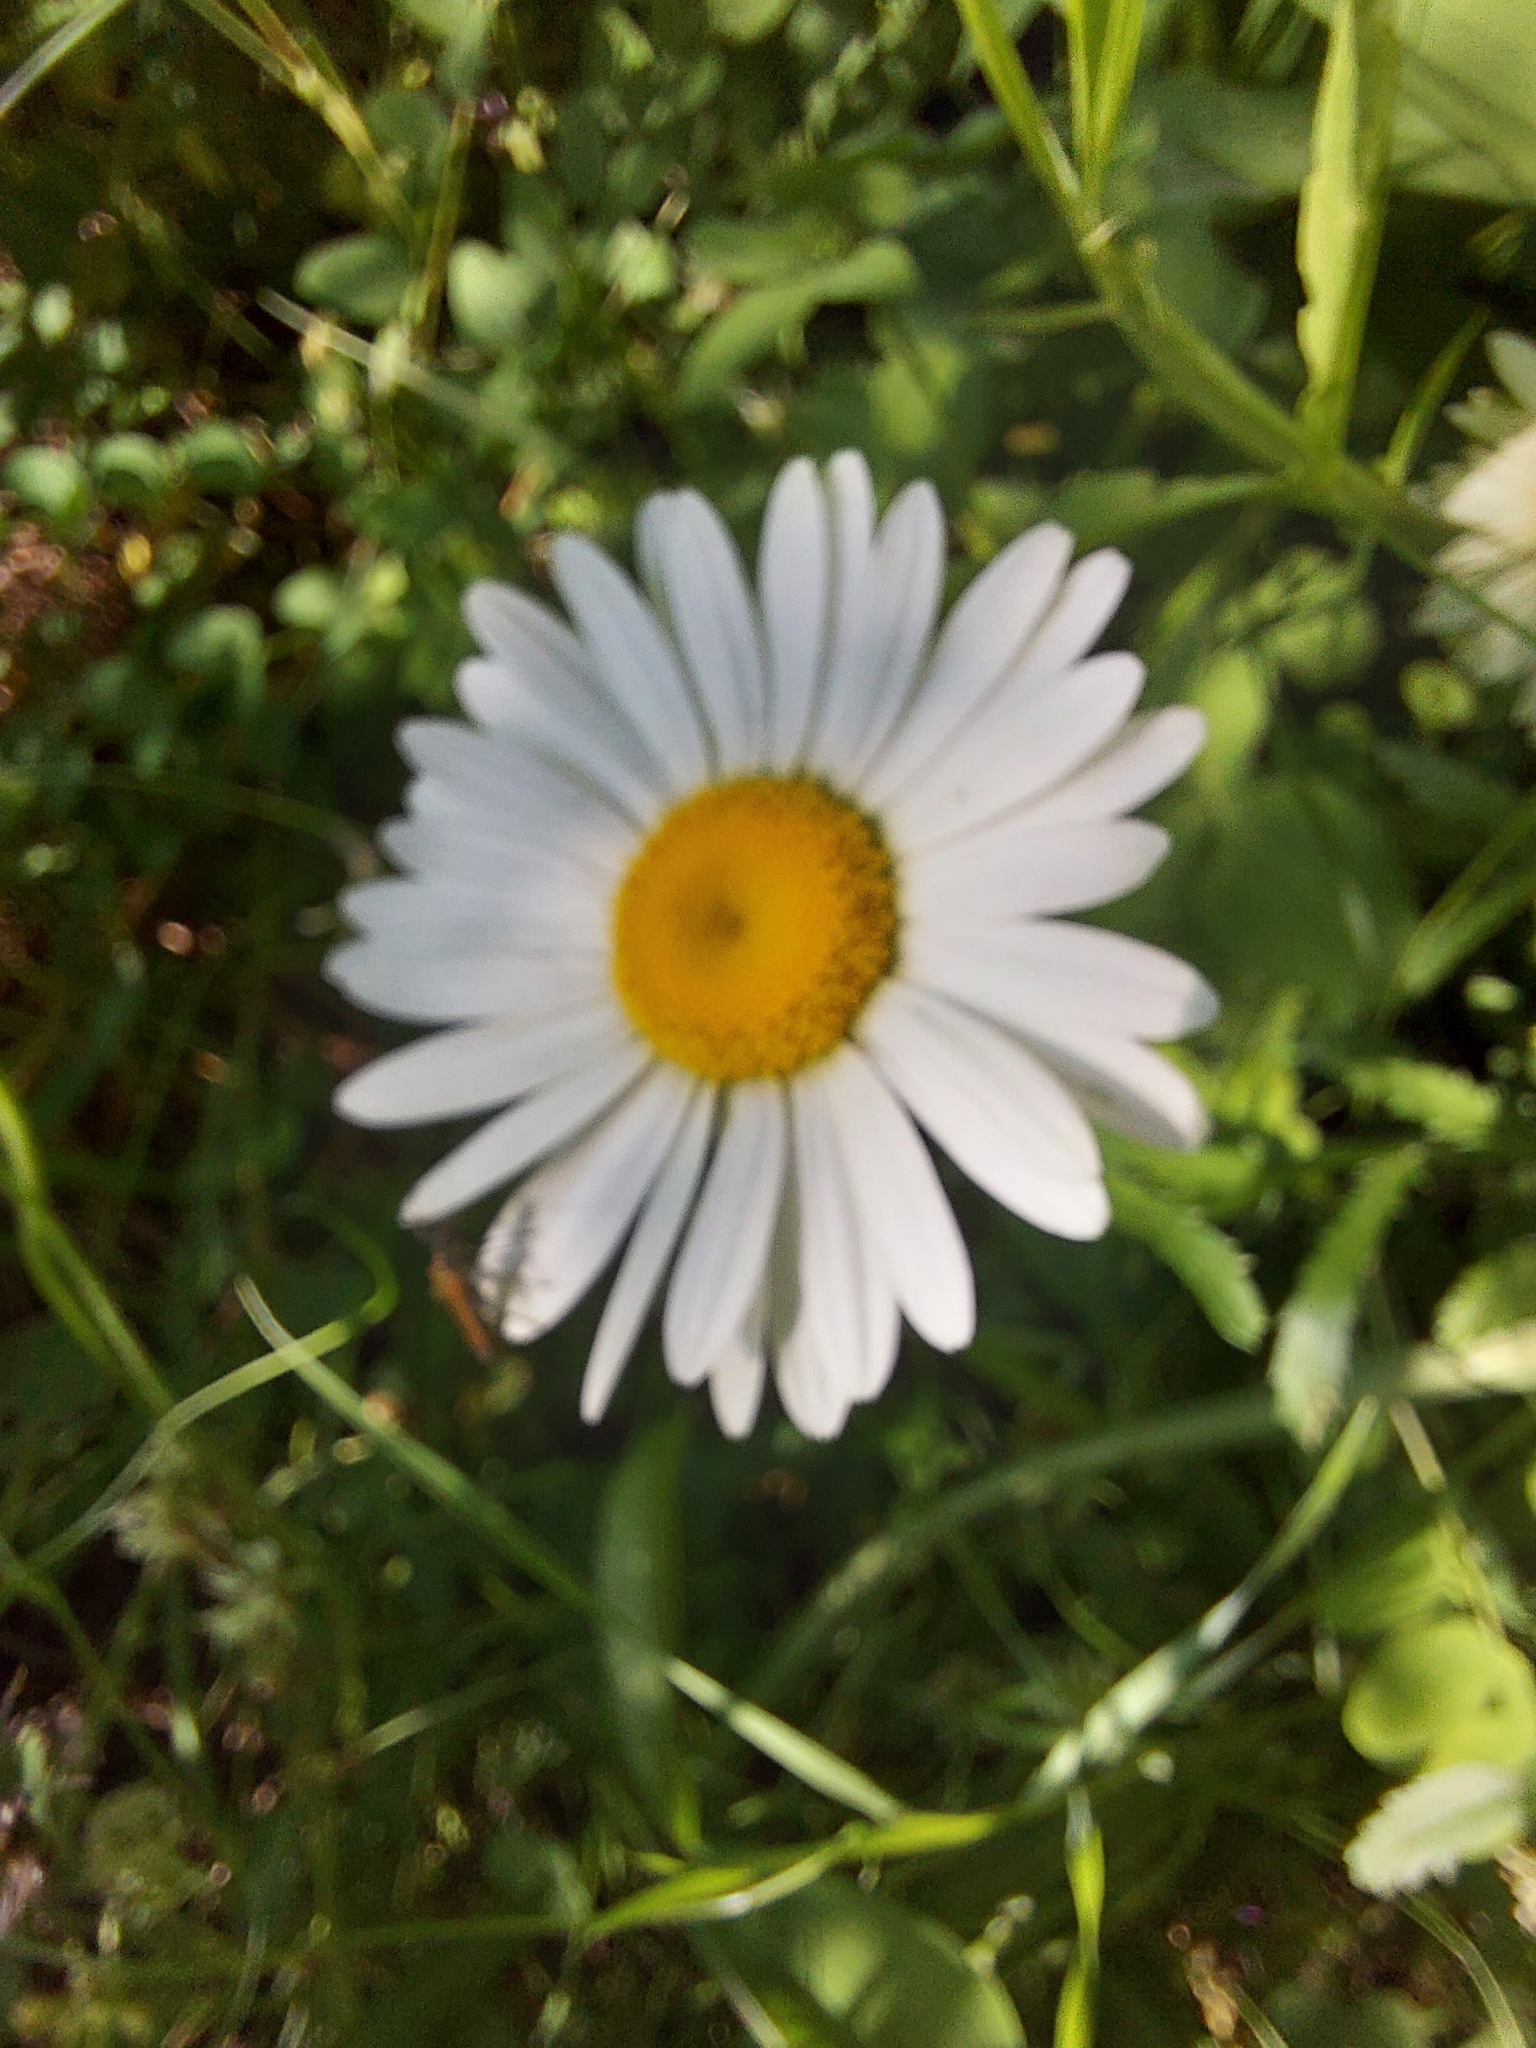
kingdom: Plantae
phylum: Tracheophyta
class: Magnoliopsida
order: Asterales
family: Asteraceae
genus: Leucanthemum
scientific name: Leucanthemum vulgare
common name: Oxeye daisy
